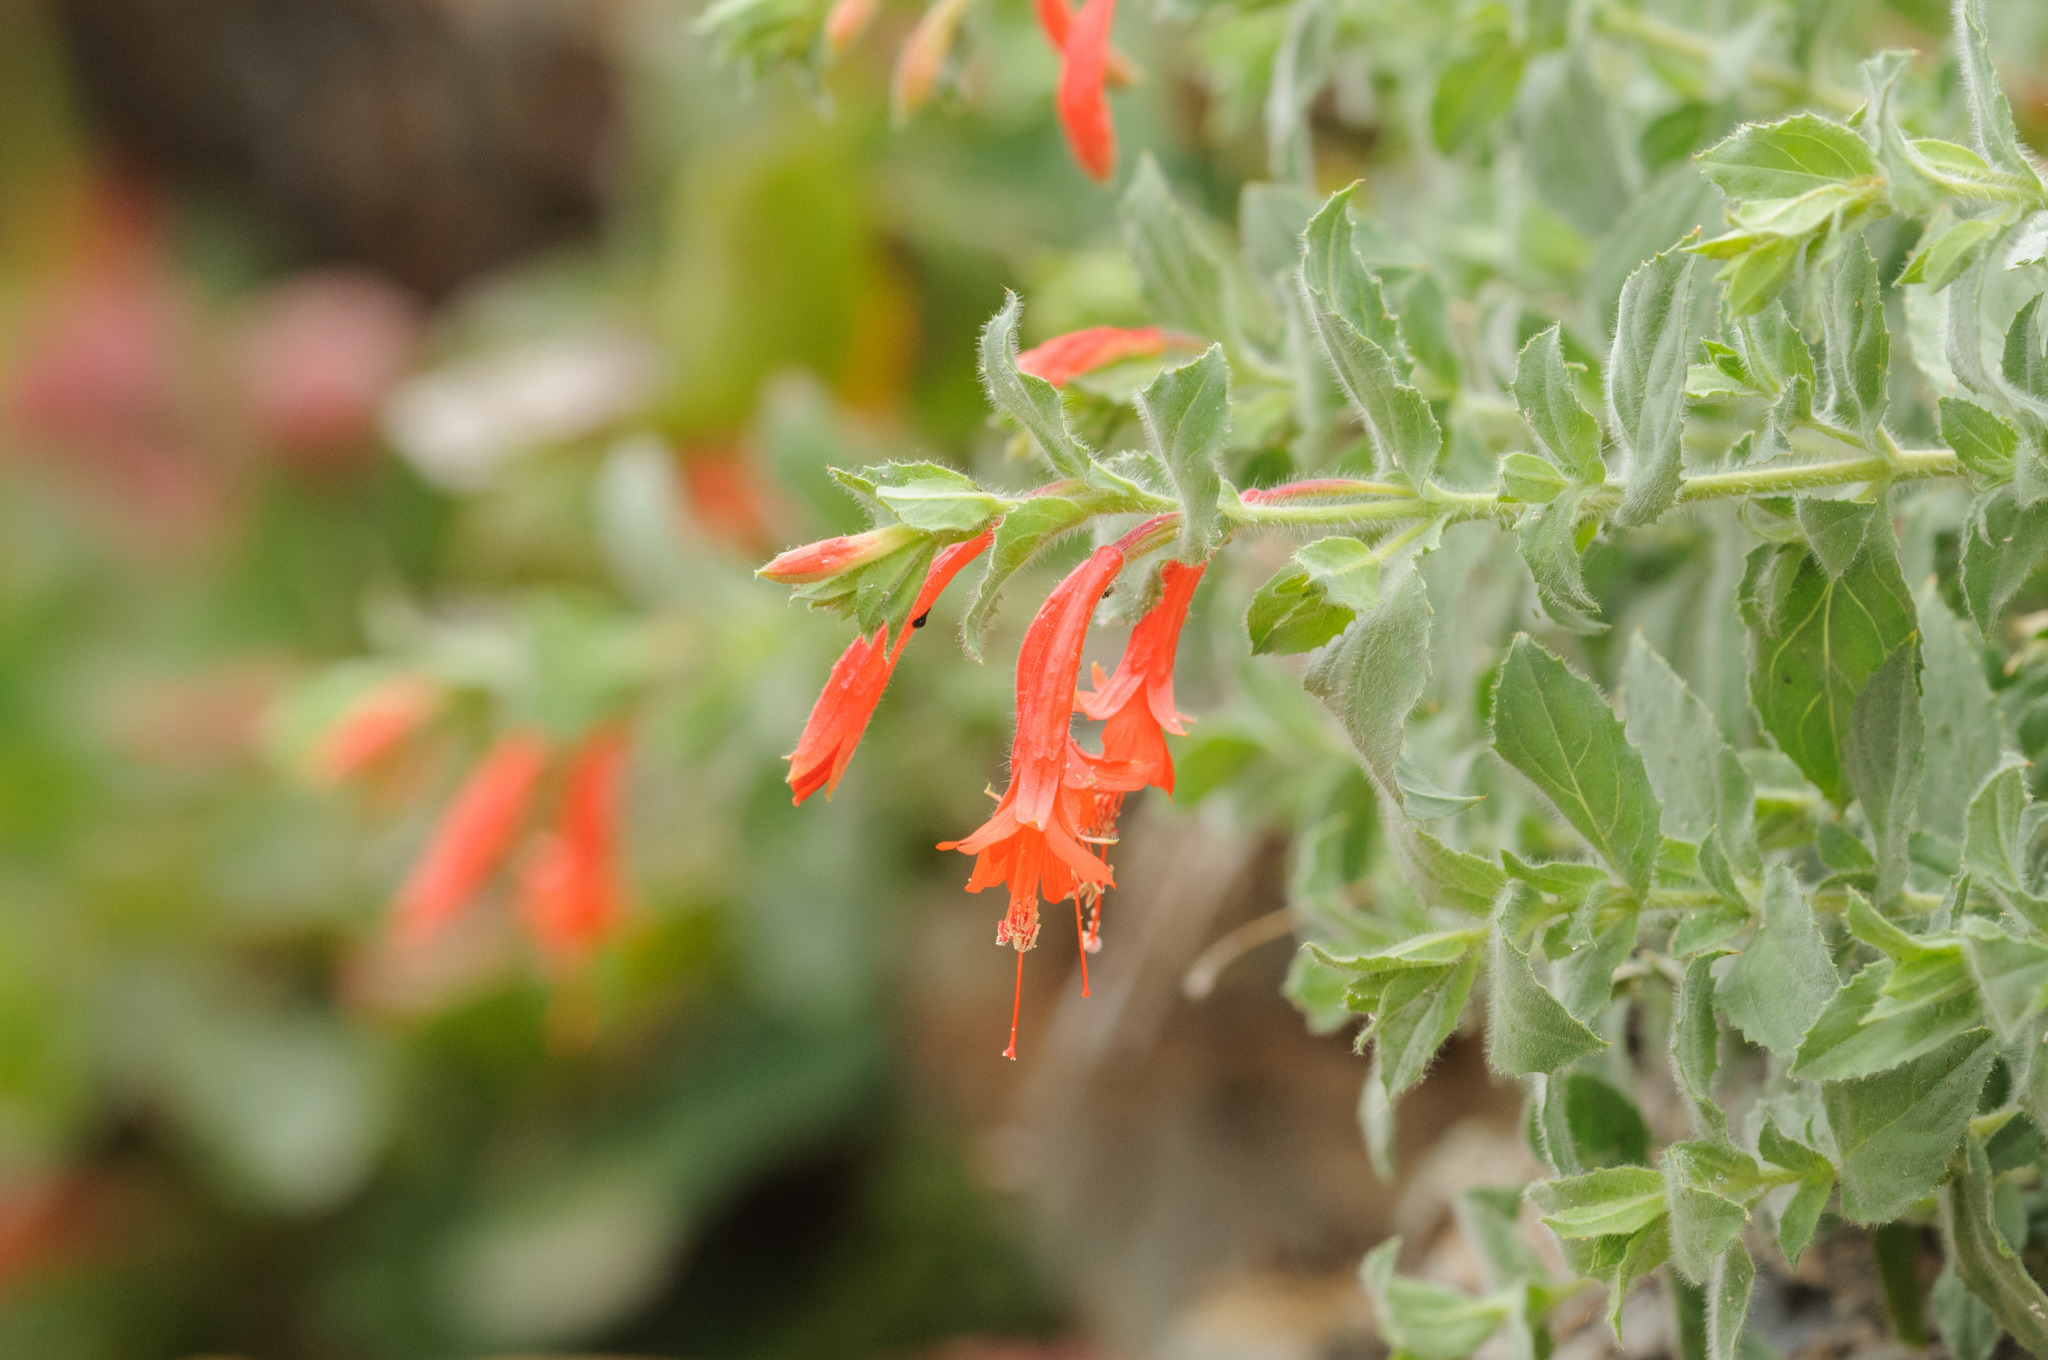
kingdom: Plantae
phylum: Tracheophyta
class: Magnoliopsida
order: Myrtales
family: Onagraceae
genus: Epilobium
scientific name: Epilobium canum
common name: California-fuchsia
